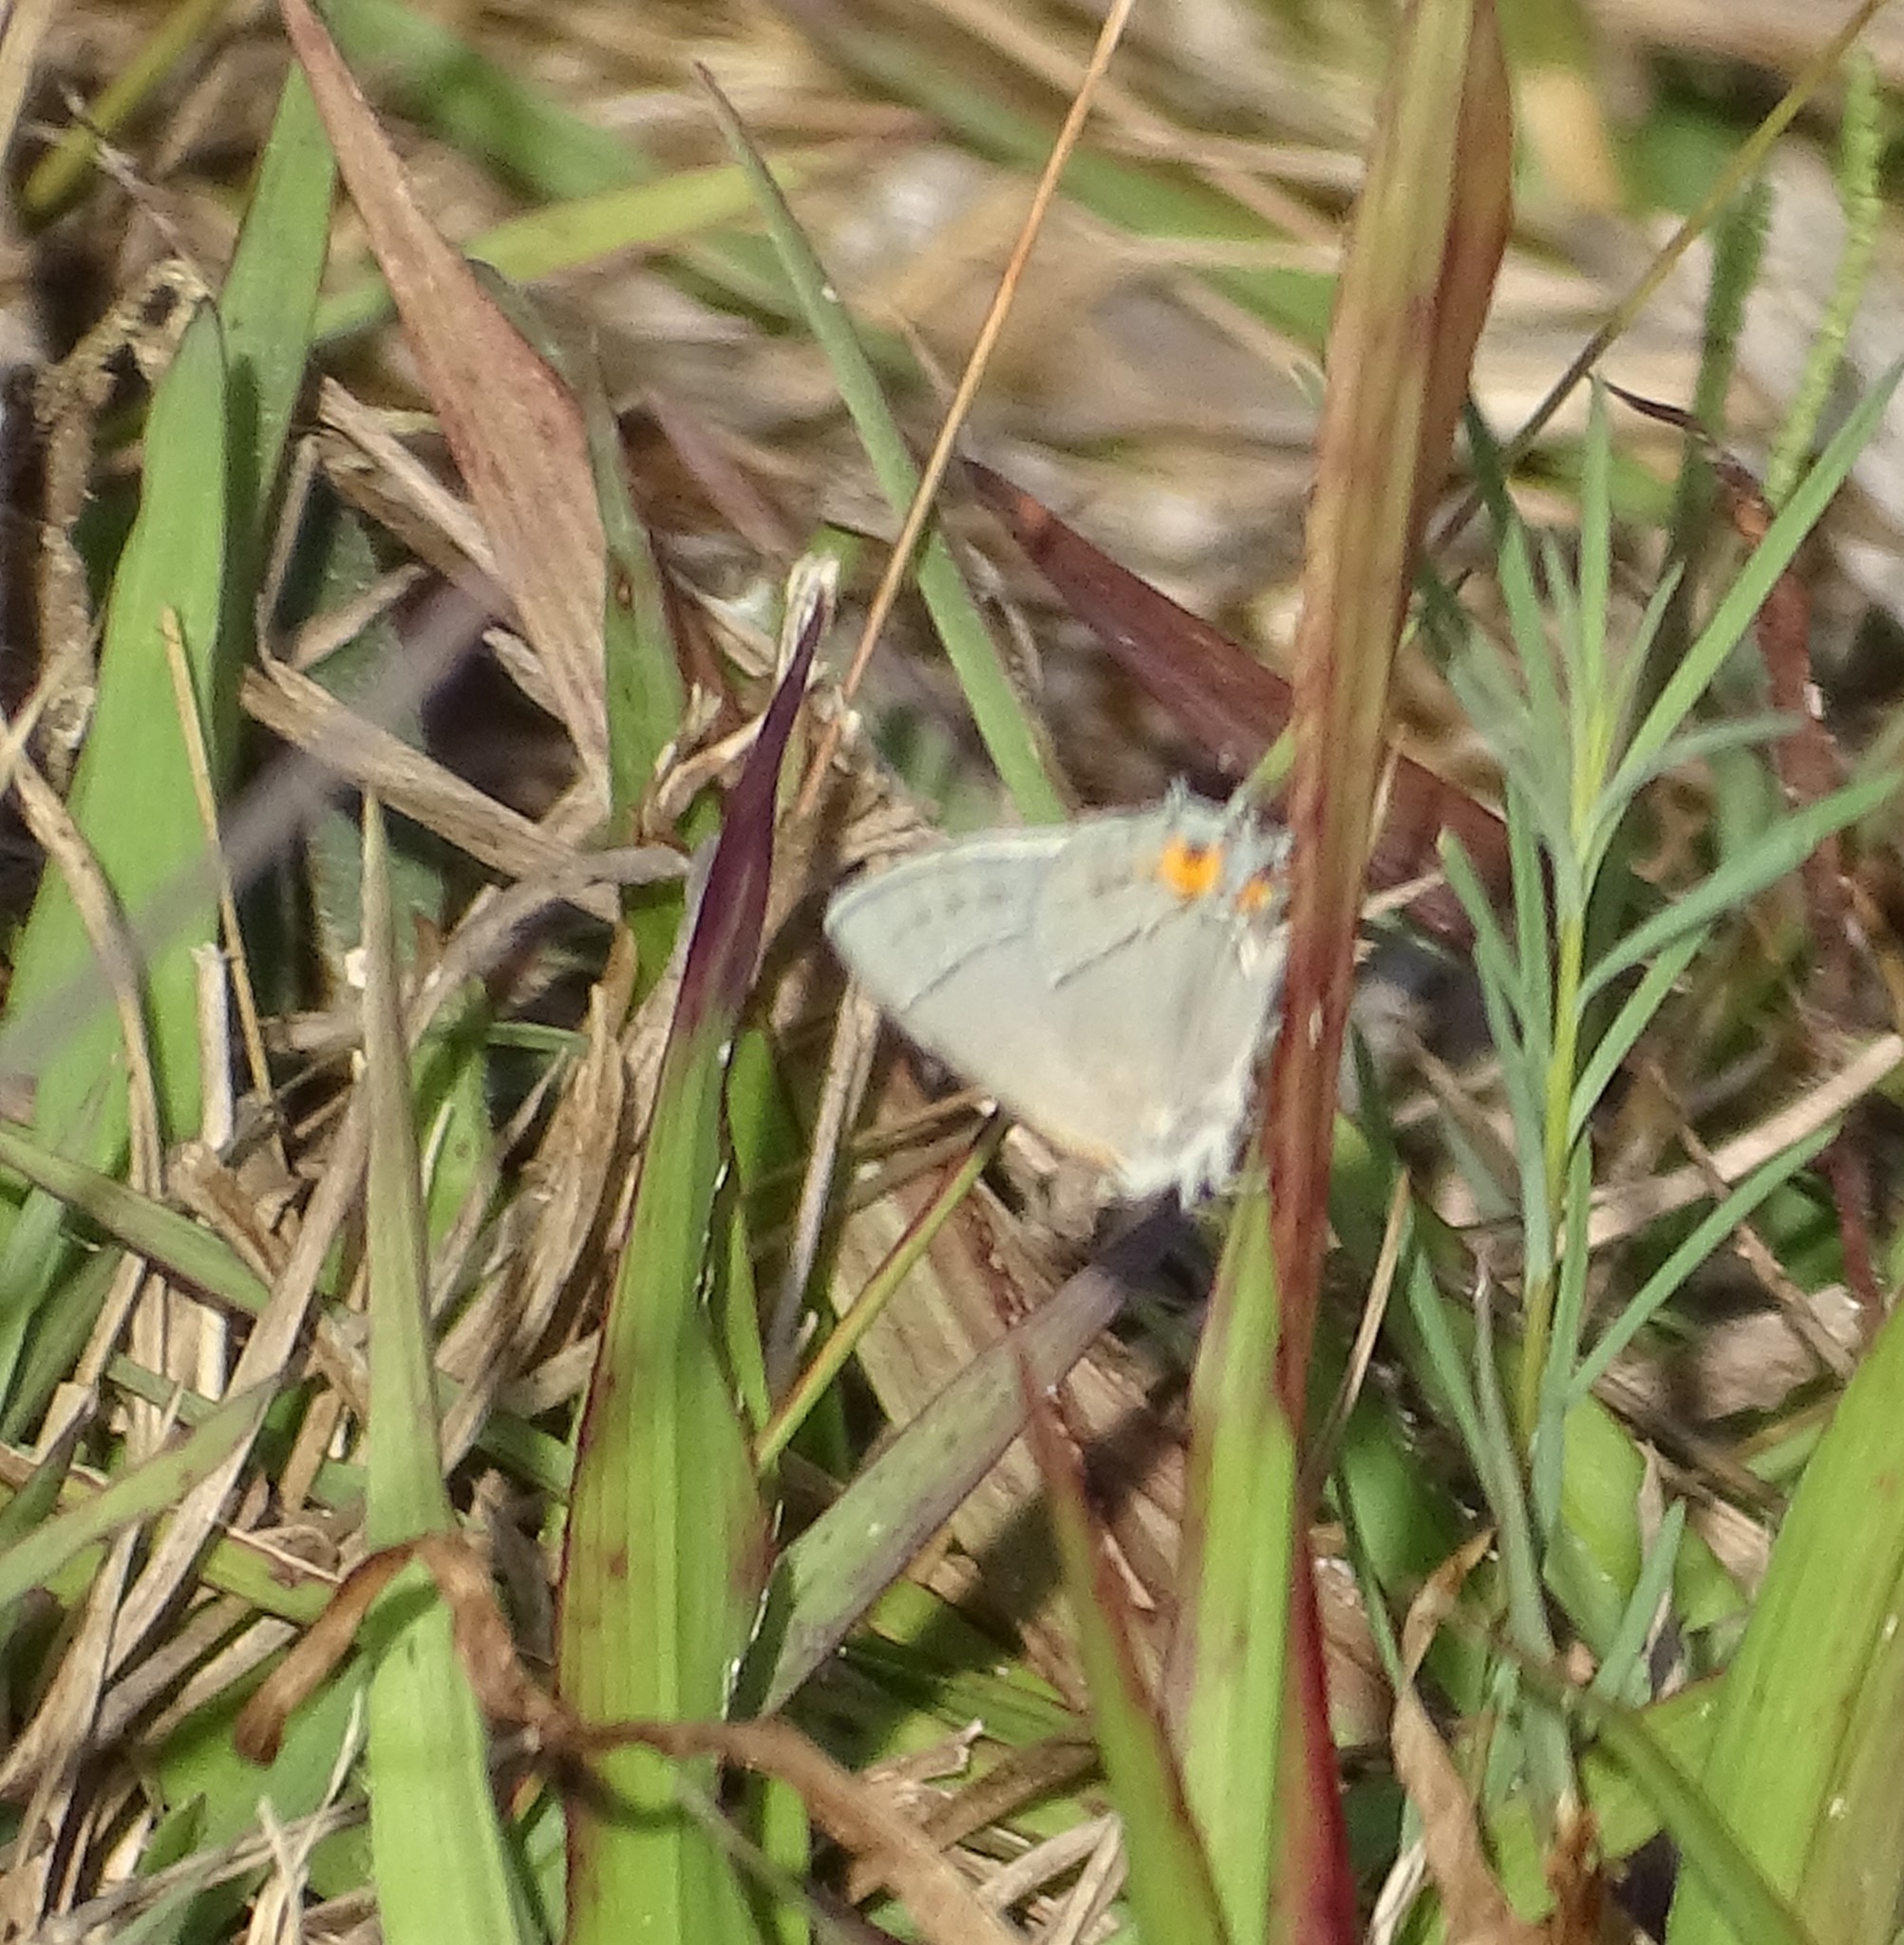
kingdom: Animalia
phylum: Arthropoda
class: Insecta
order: Lepidoptera
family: Lycaenidae
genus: Strymon
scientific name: Strymon melinus
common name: Gray hairstreak
